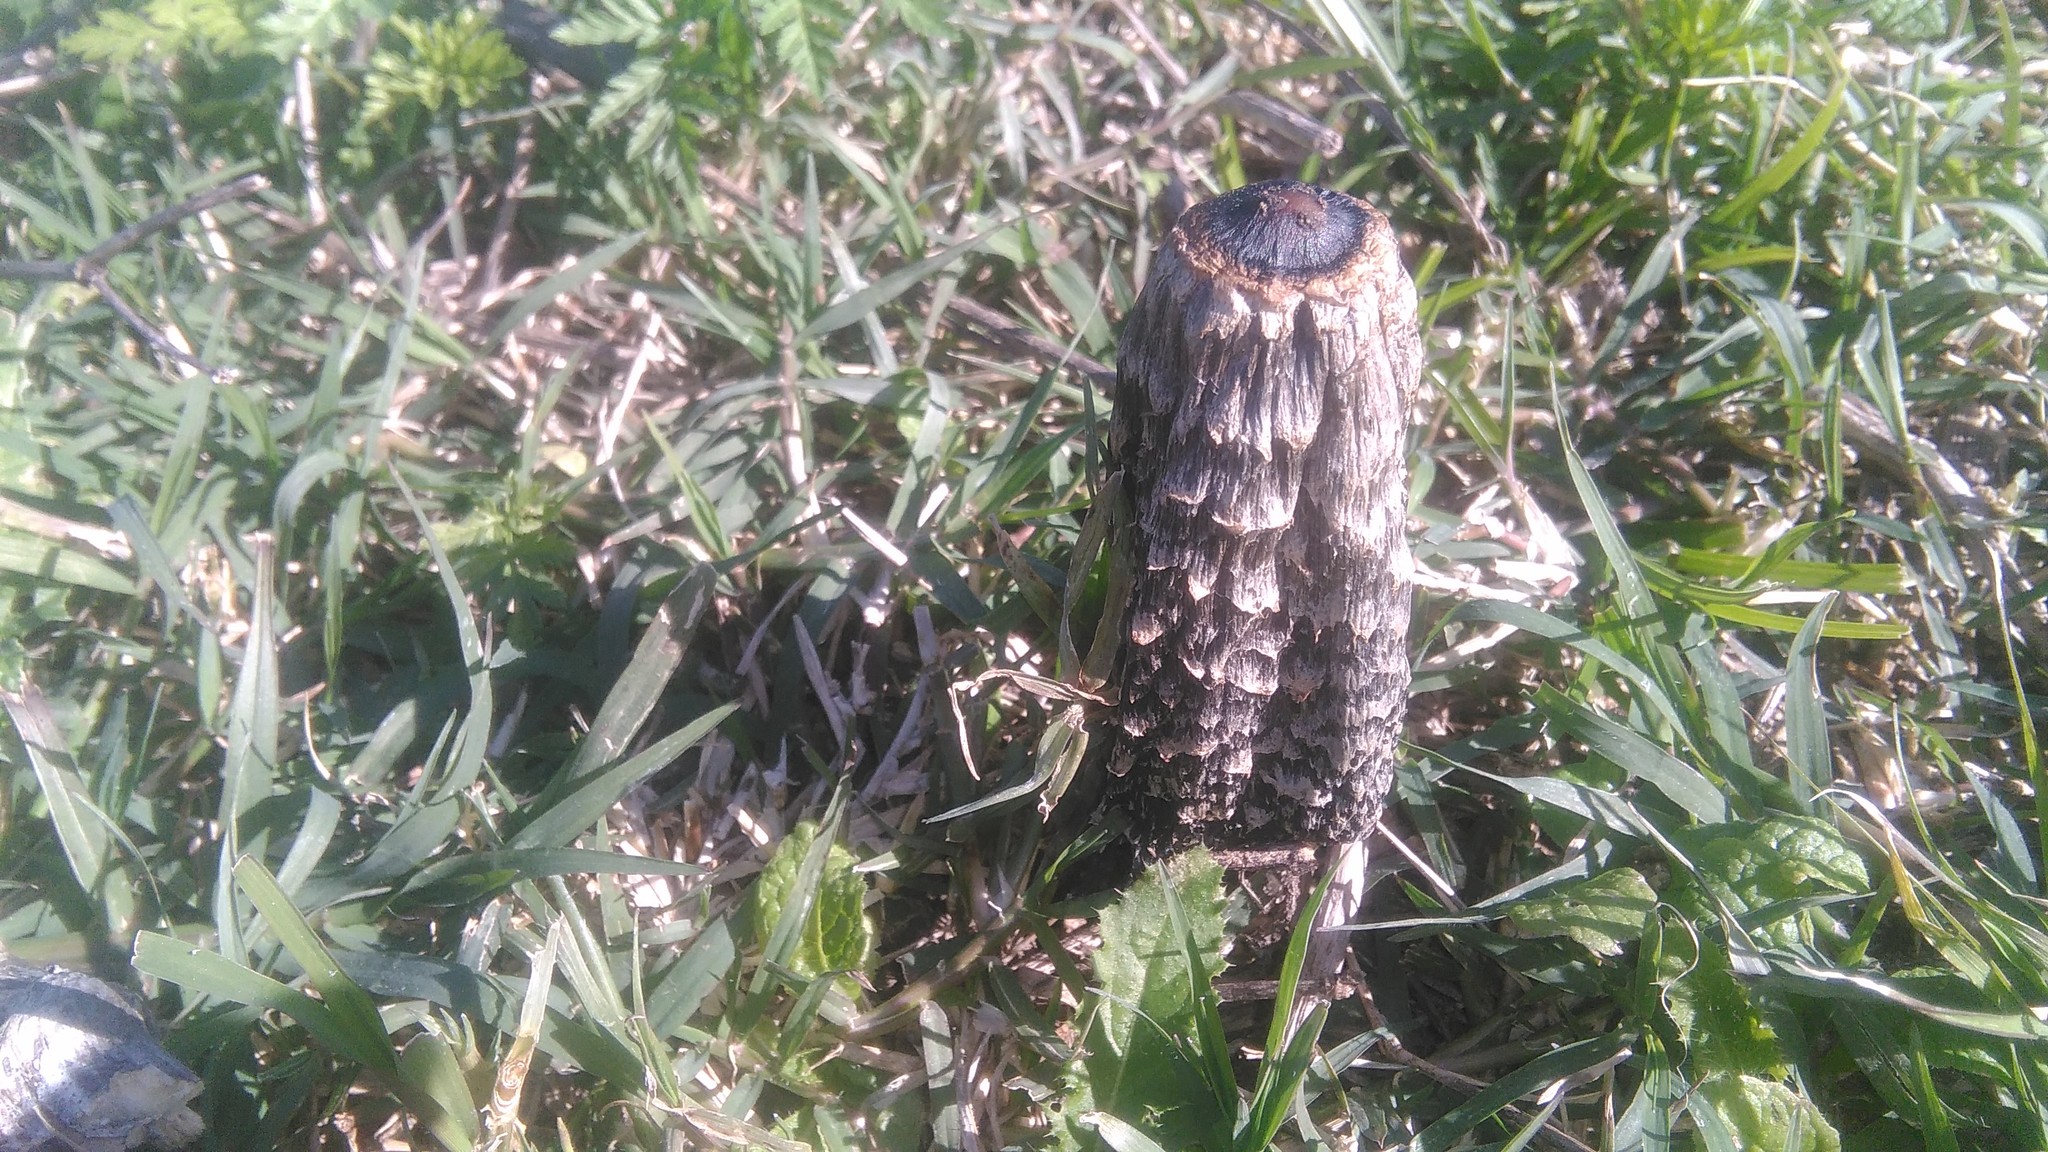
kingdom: Fungi
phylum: Basidiomycota
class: Agaricomycetes
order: Agaricales
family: Agaricaceae
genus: Coprinus
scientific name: Coprinus comatus
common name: Lawyer's wig
